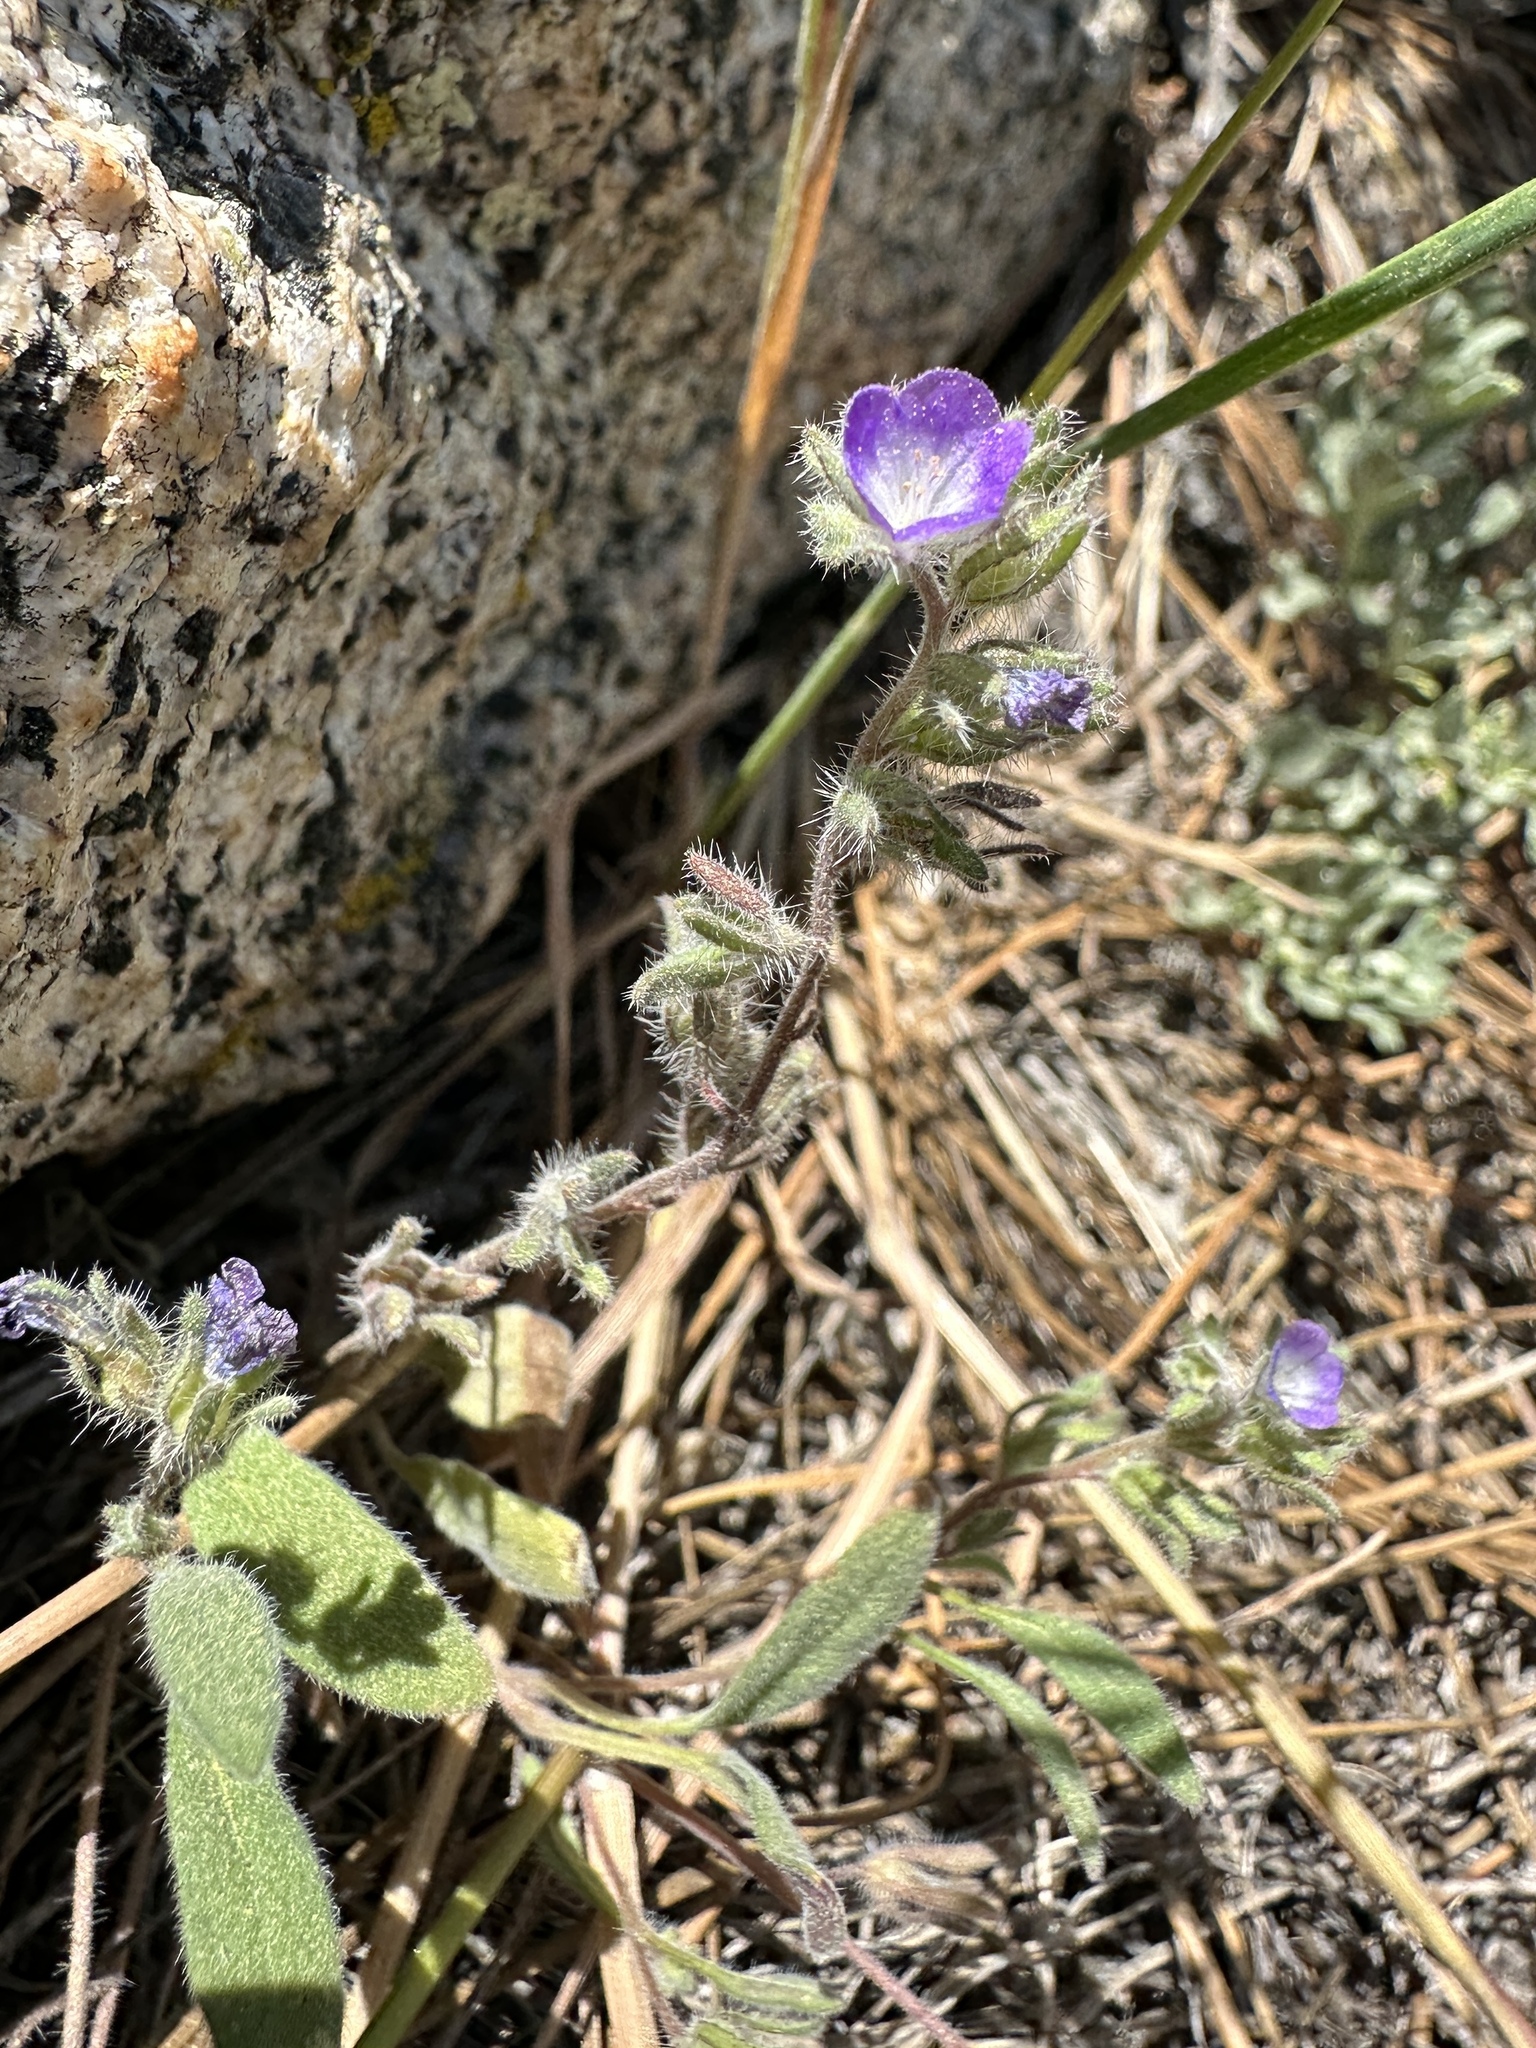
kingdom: Plantae
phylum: Tracheophyta
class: Magnoliopsida
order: Boraginales
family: Hydrophyllaceae
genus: Phacelia
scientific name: Phacelia curvipes
